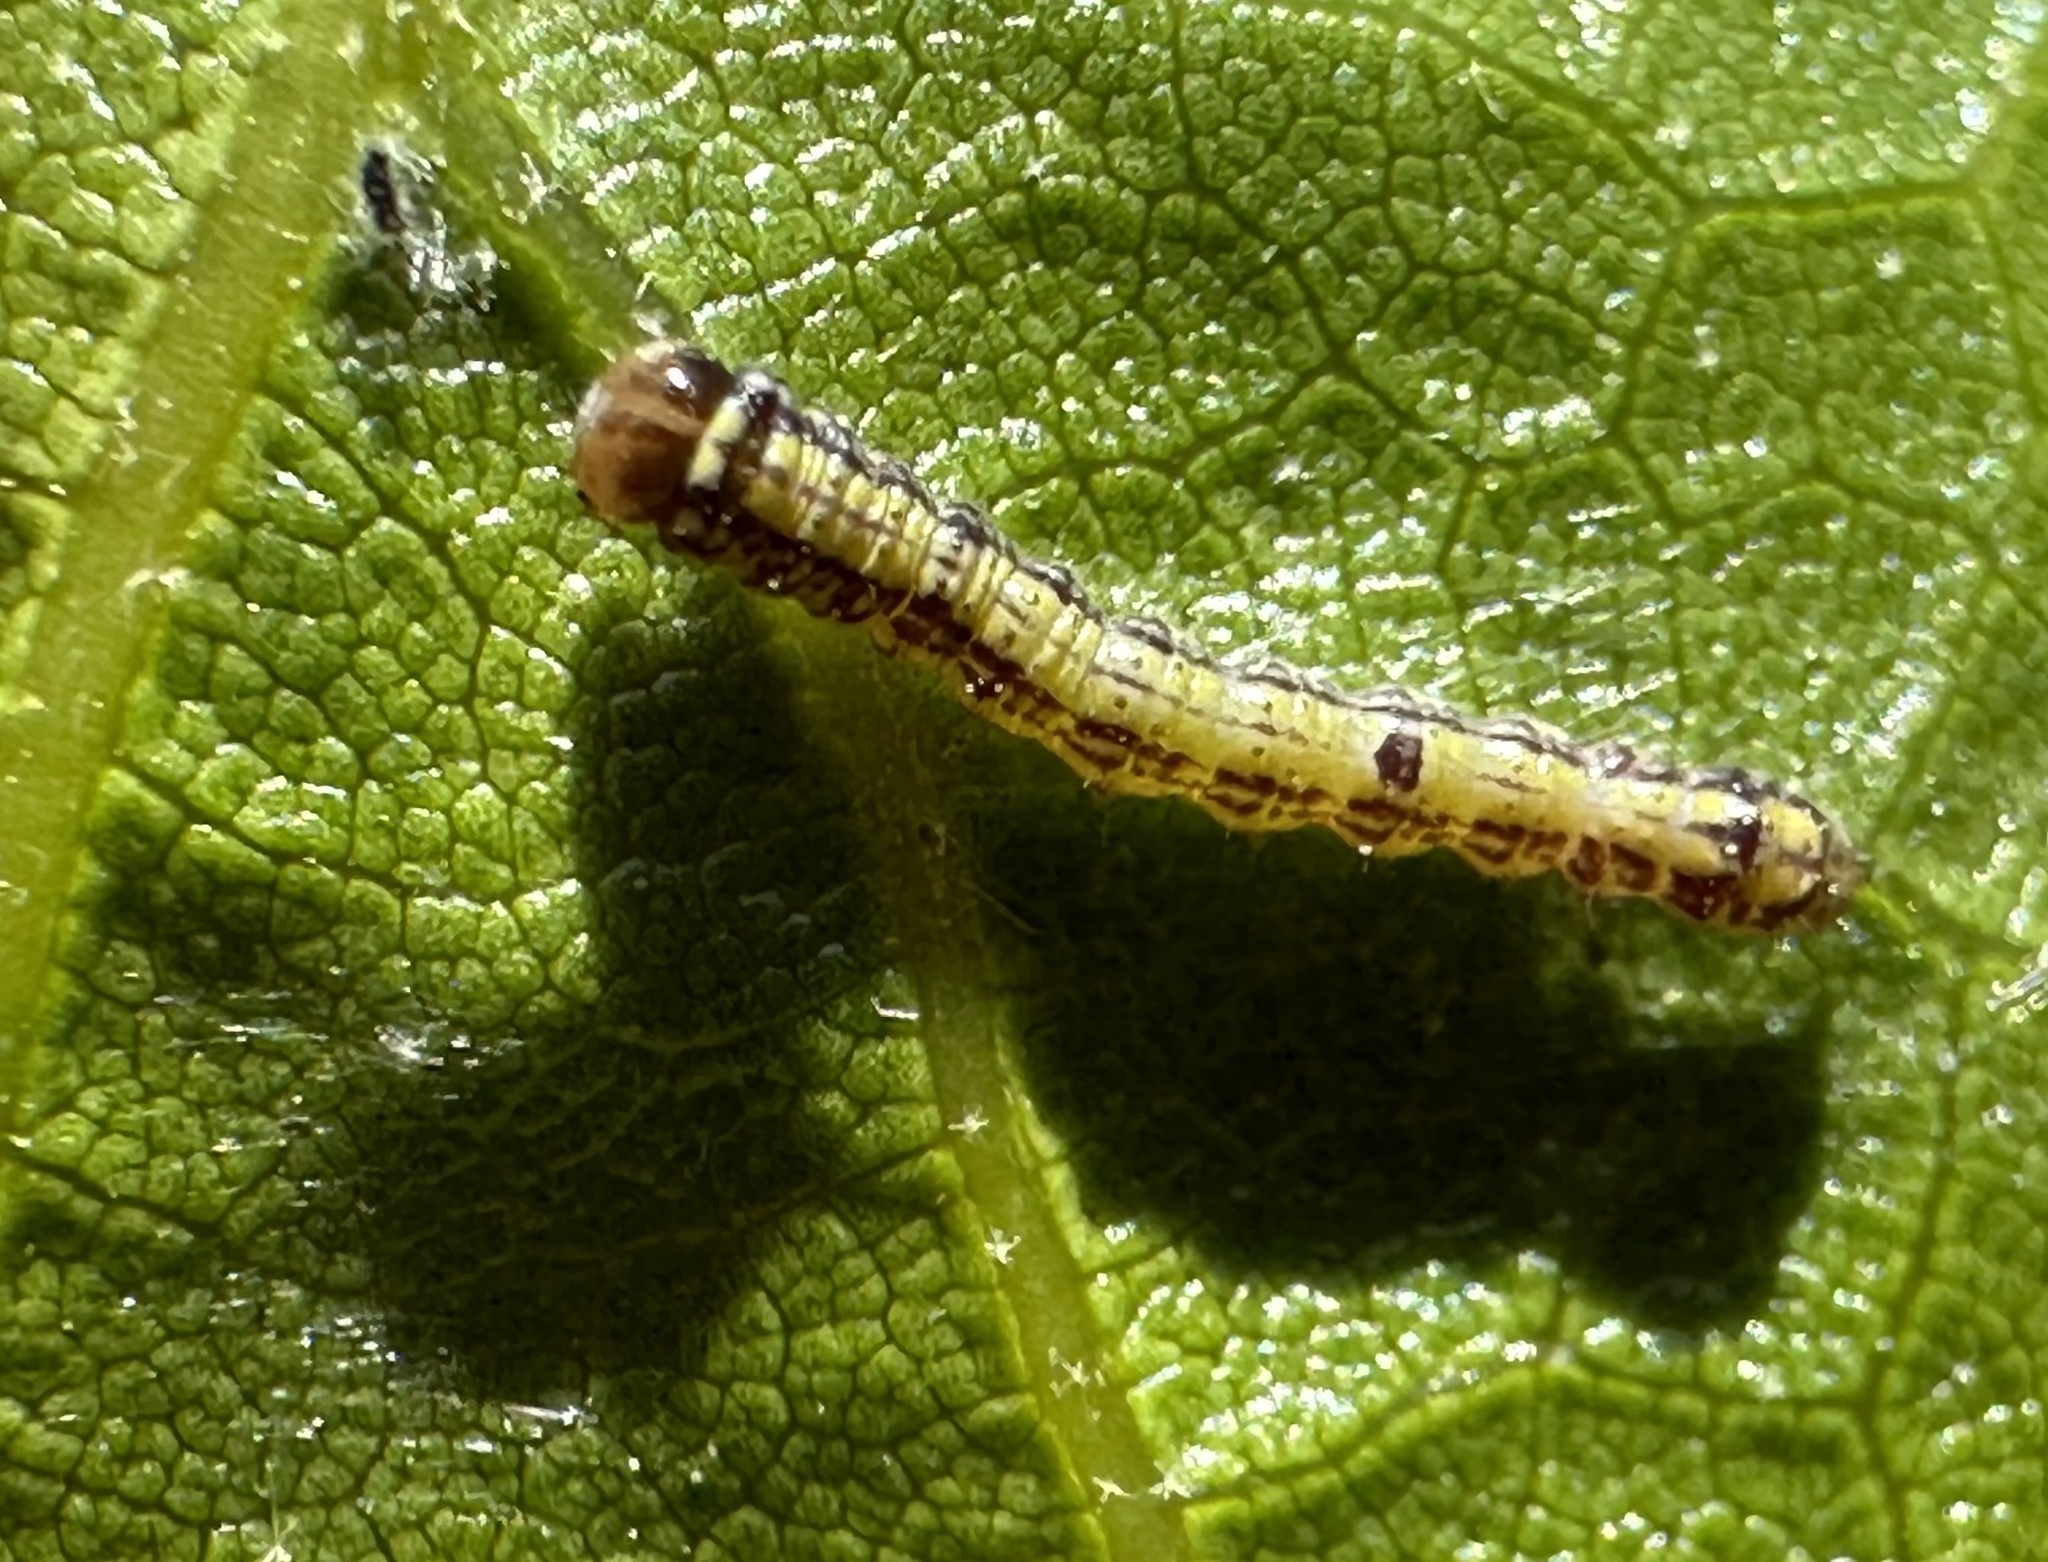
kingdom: Animalia
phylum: Arthropoda
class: Insecta
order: Lepidoptera
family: Notodontidae
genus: Phryganidia
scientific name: Phryganidia californica
